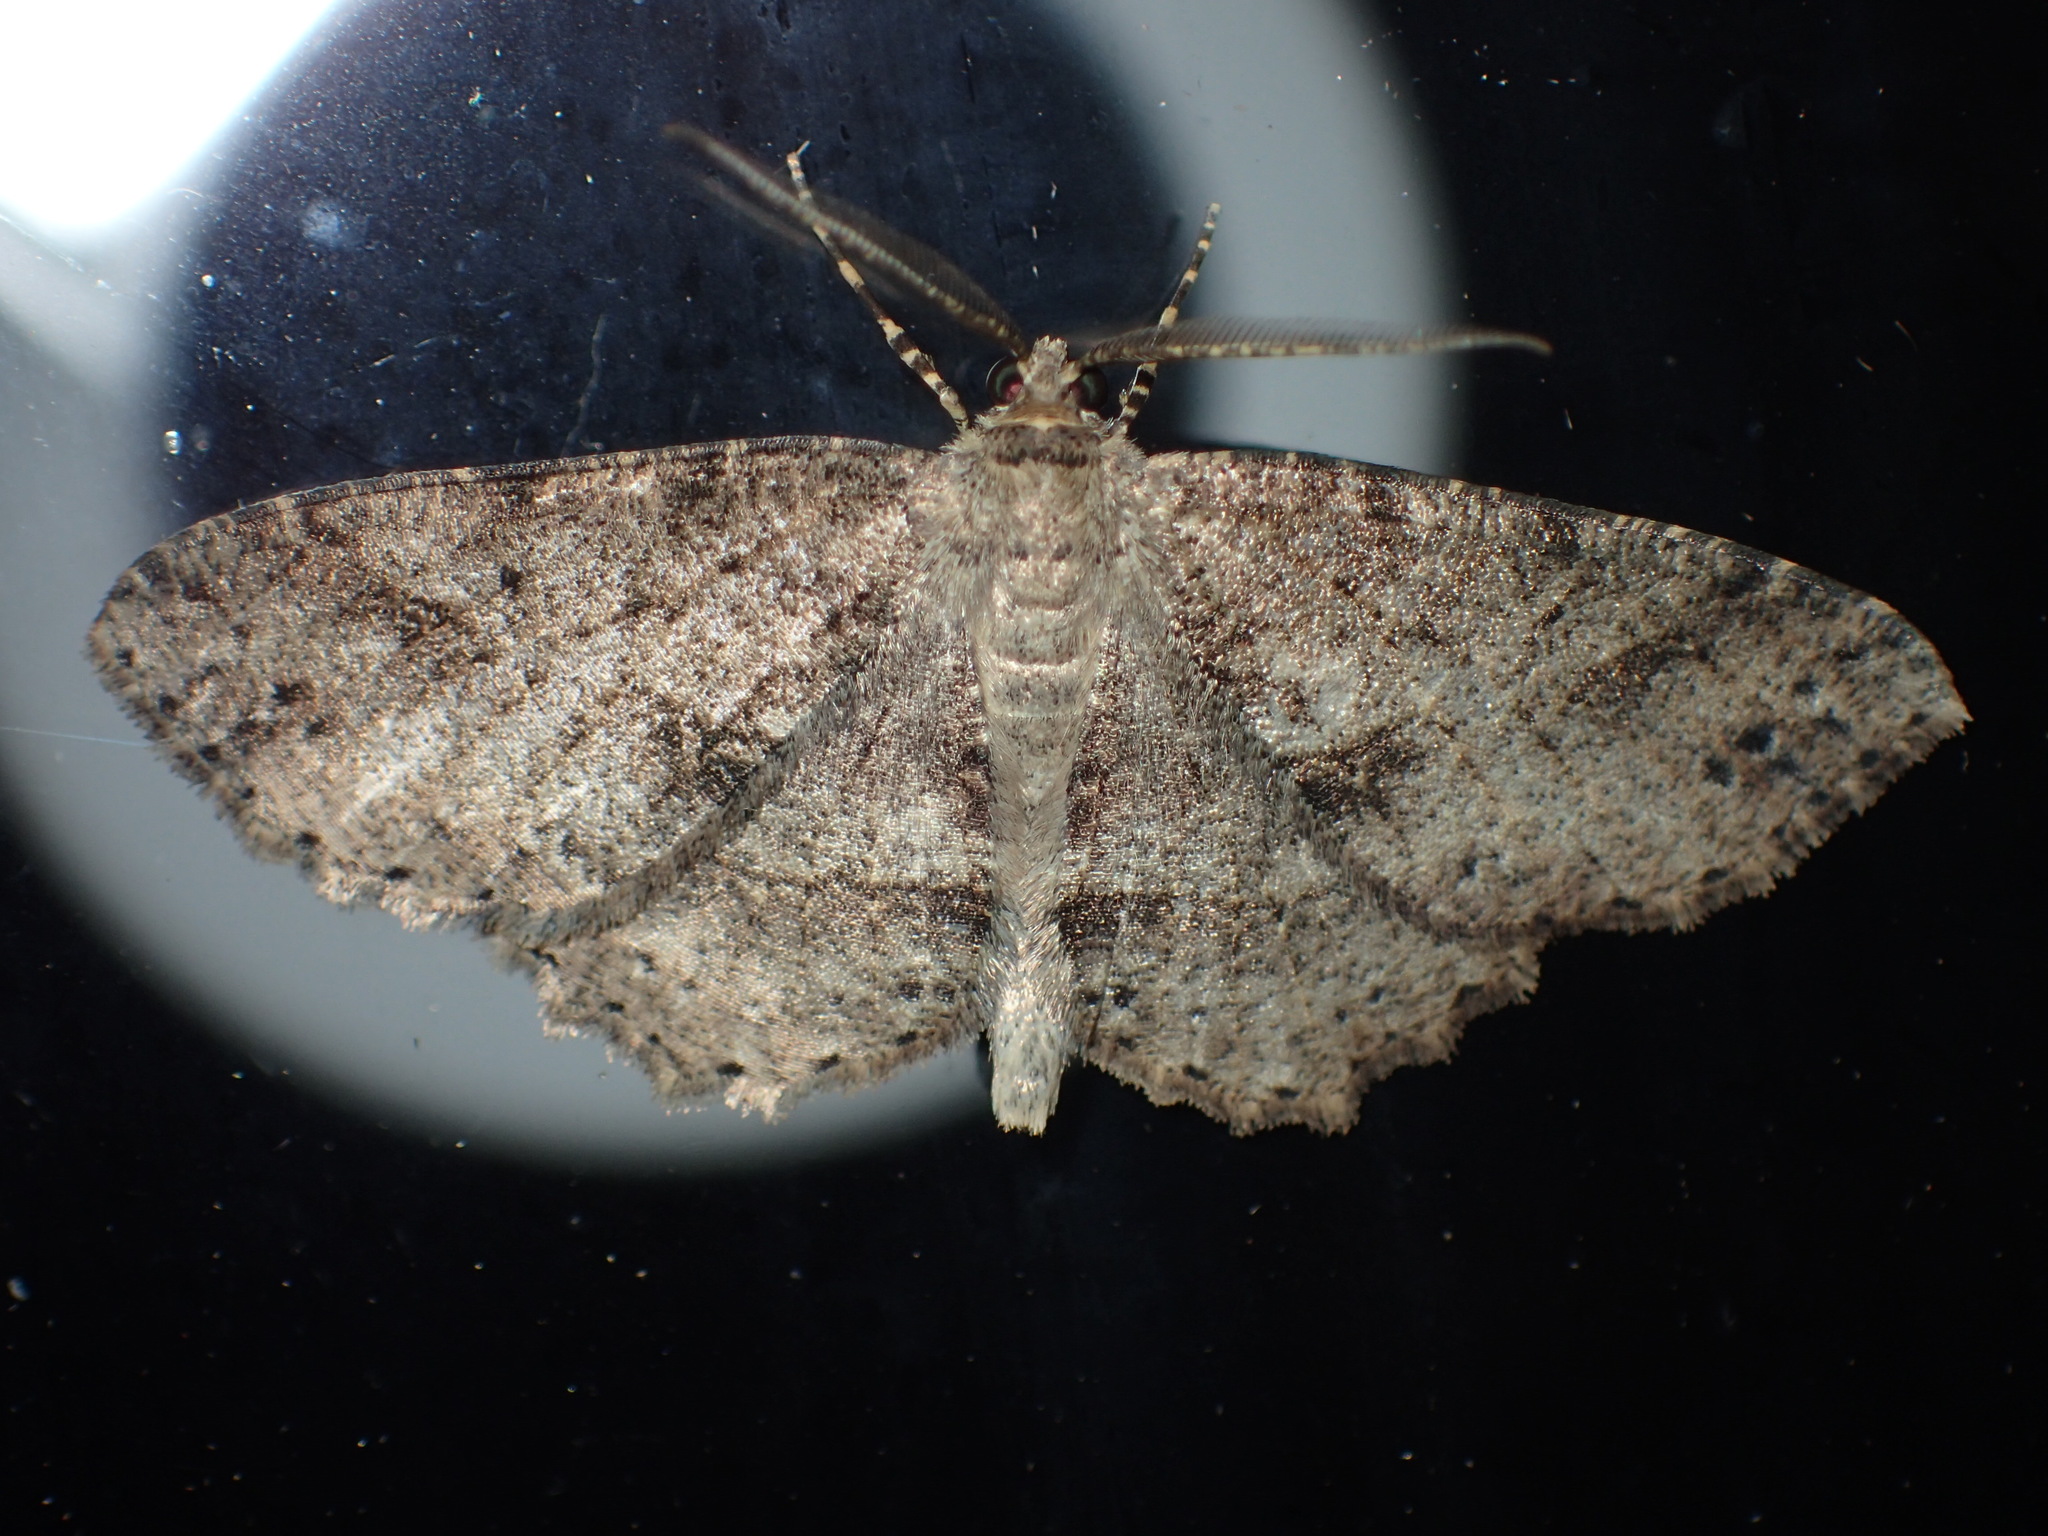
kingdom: Animalia
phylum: Arthropoda
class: Insecta
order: Lepidoptera
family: Geometridae
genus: Melanolophia
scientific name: Melanolophia canadaria
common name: Canadian melanolophia
